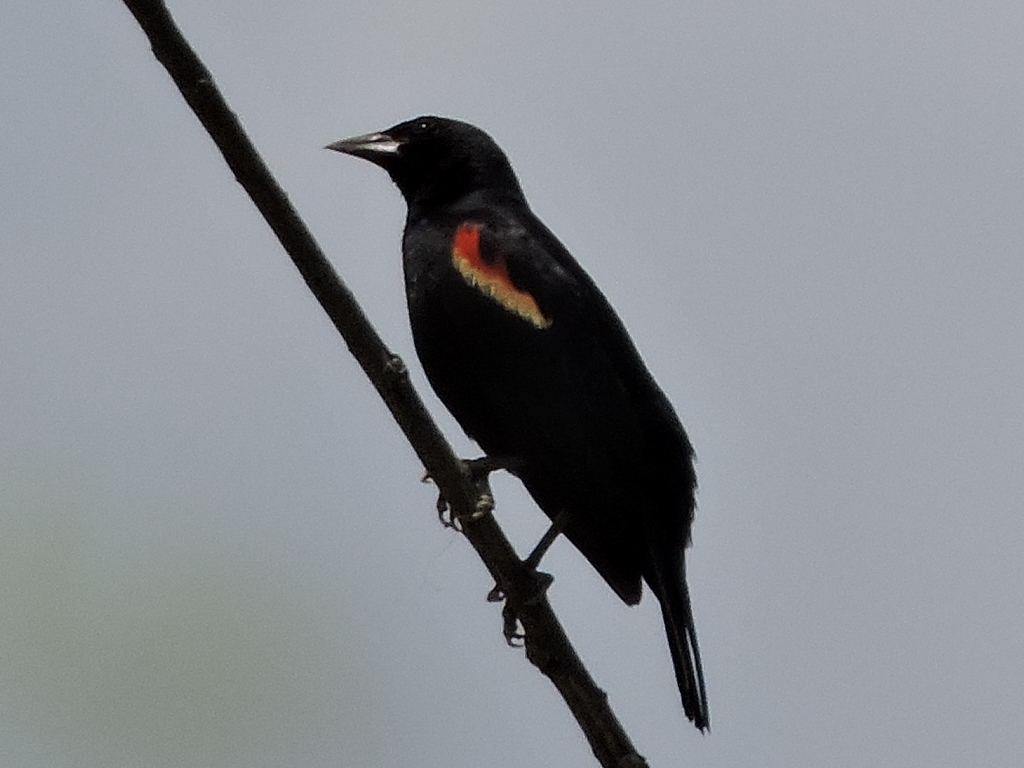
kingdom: Animalia
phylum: Chordata
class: Aves
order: Passeriformes
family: Icteridae
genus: Agelaius
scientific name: Agelaius phoeniceus
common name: Red-winged blackbird
